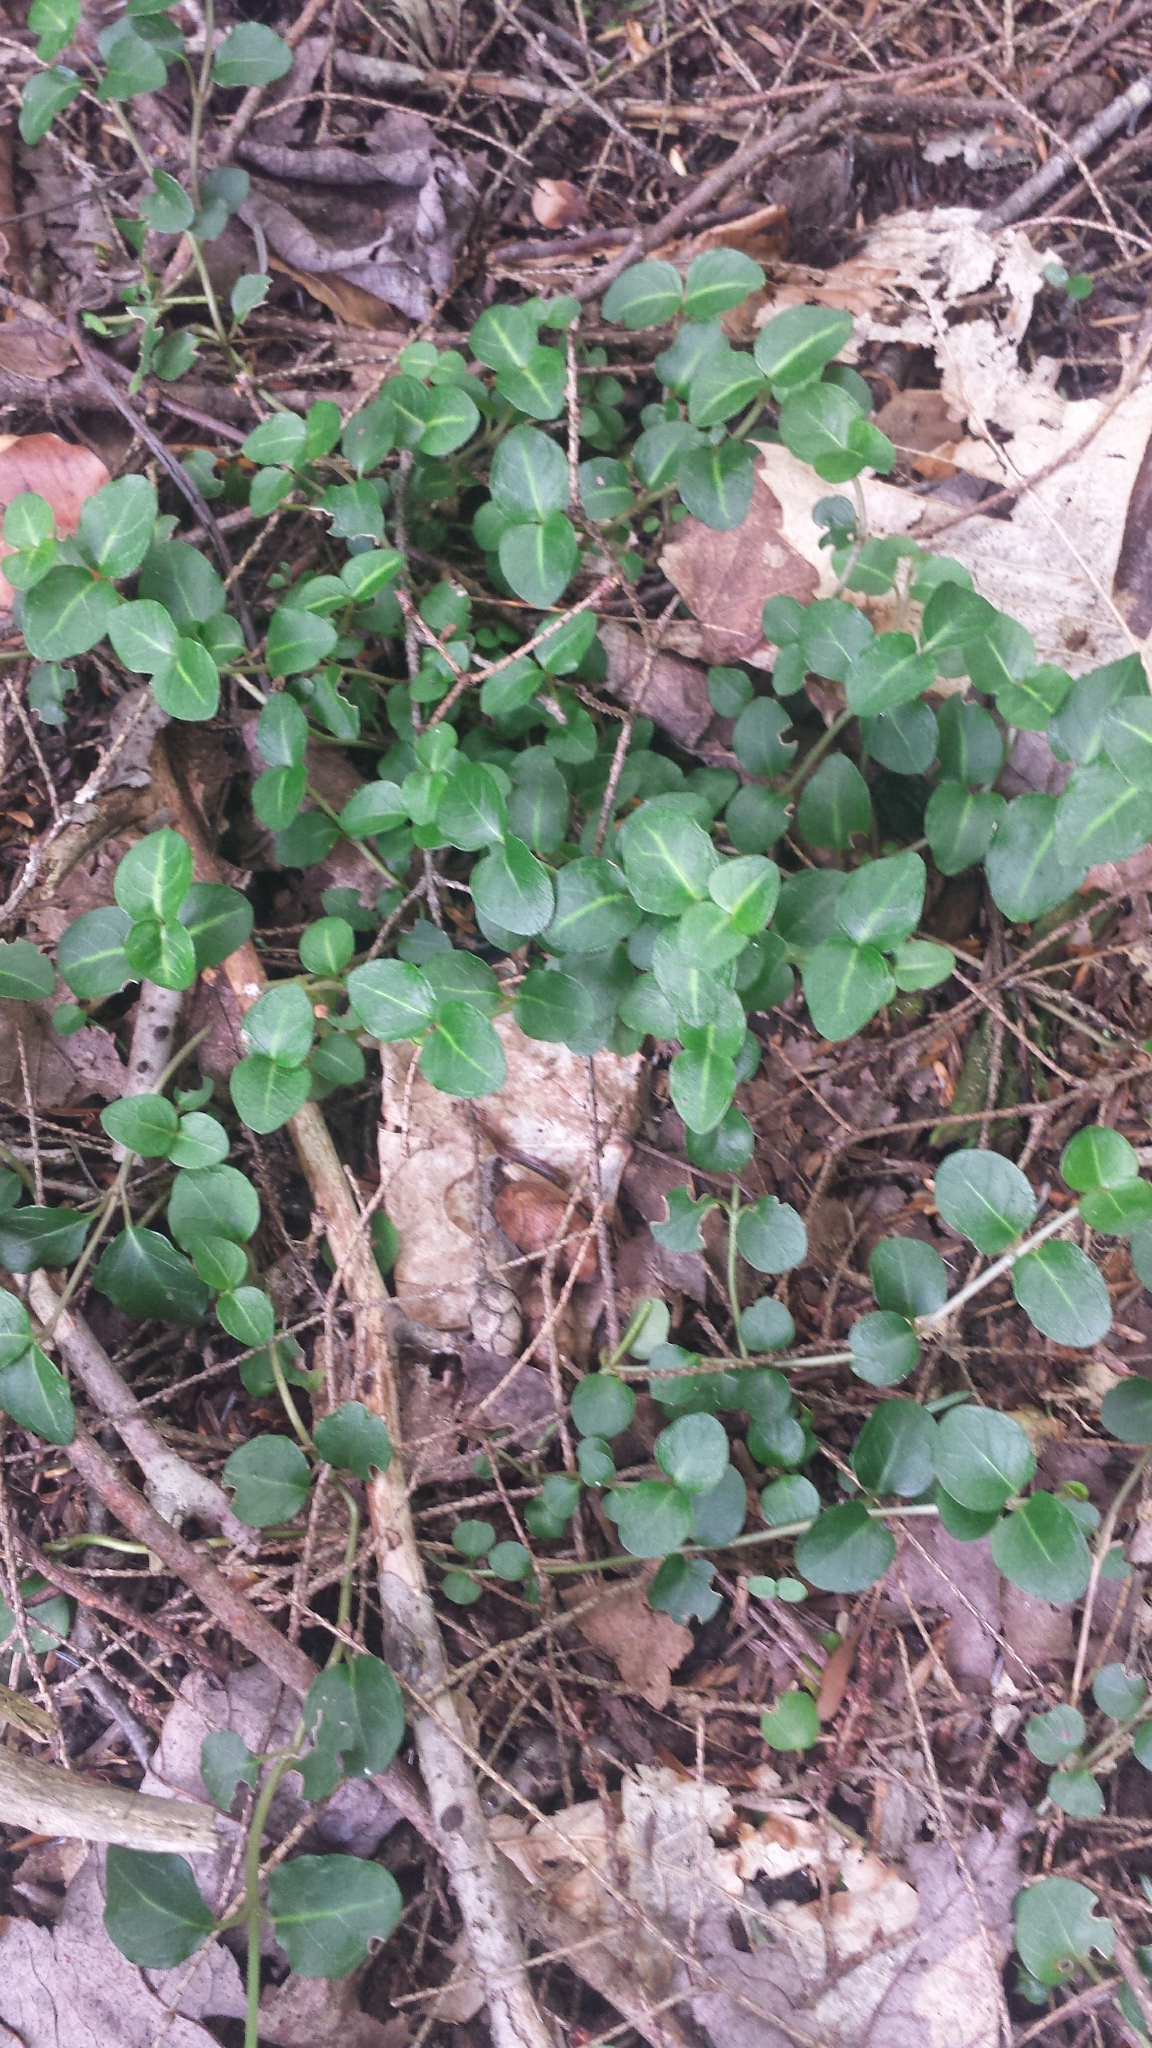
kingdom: Plantae
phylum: Tracheophyta
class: Magnoliopsida
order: Gentianales
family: Rubiaceae
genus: Mitchella
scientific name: Mitchella repens
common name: Partridge-berry
